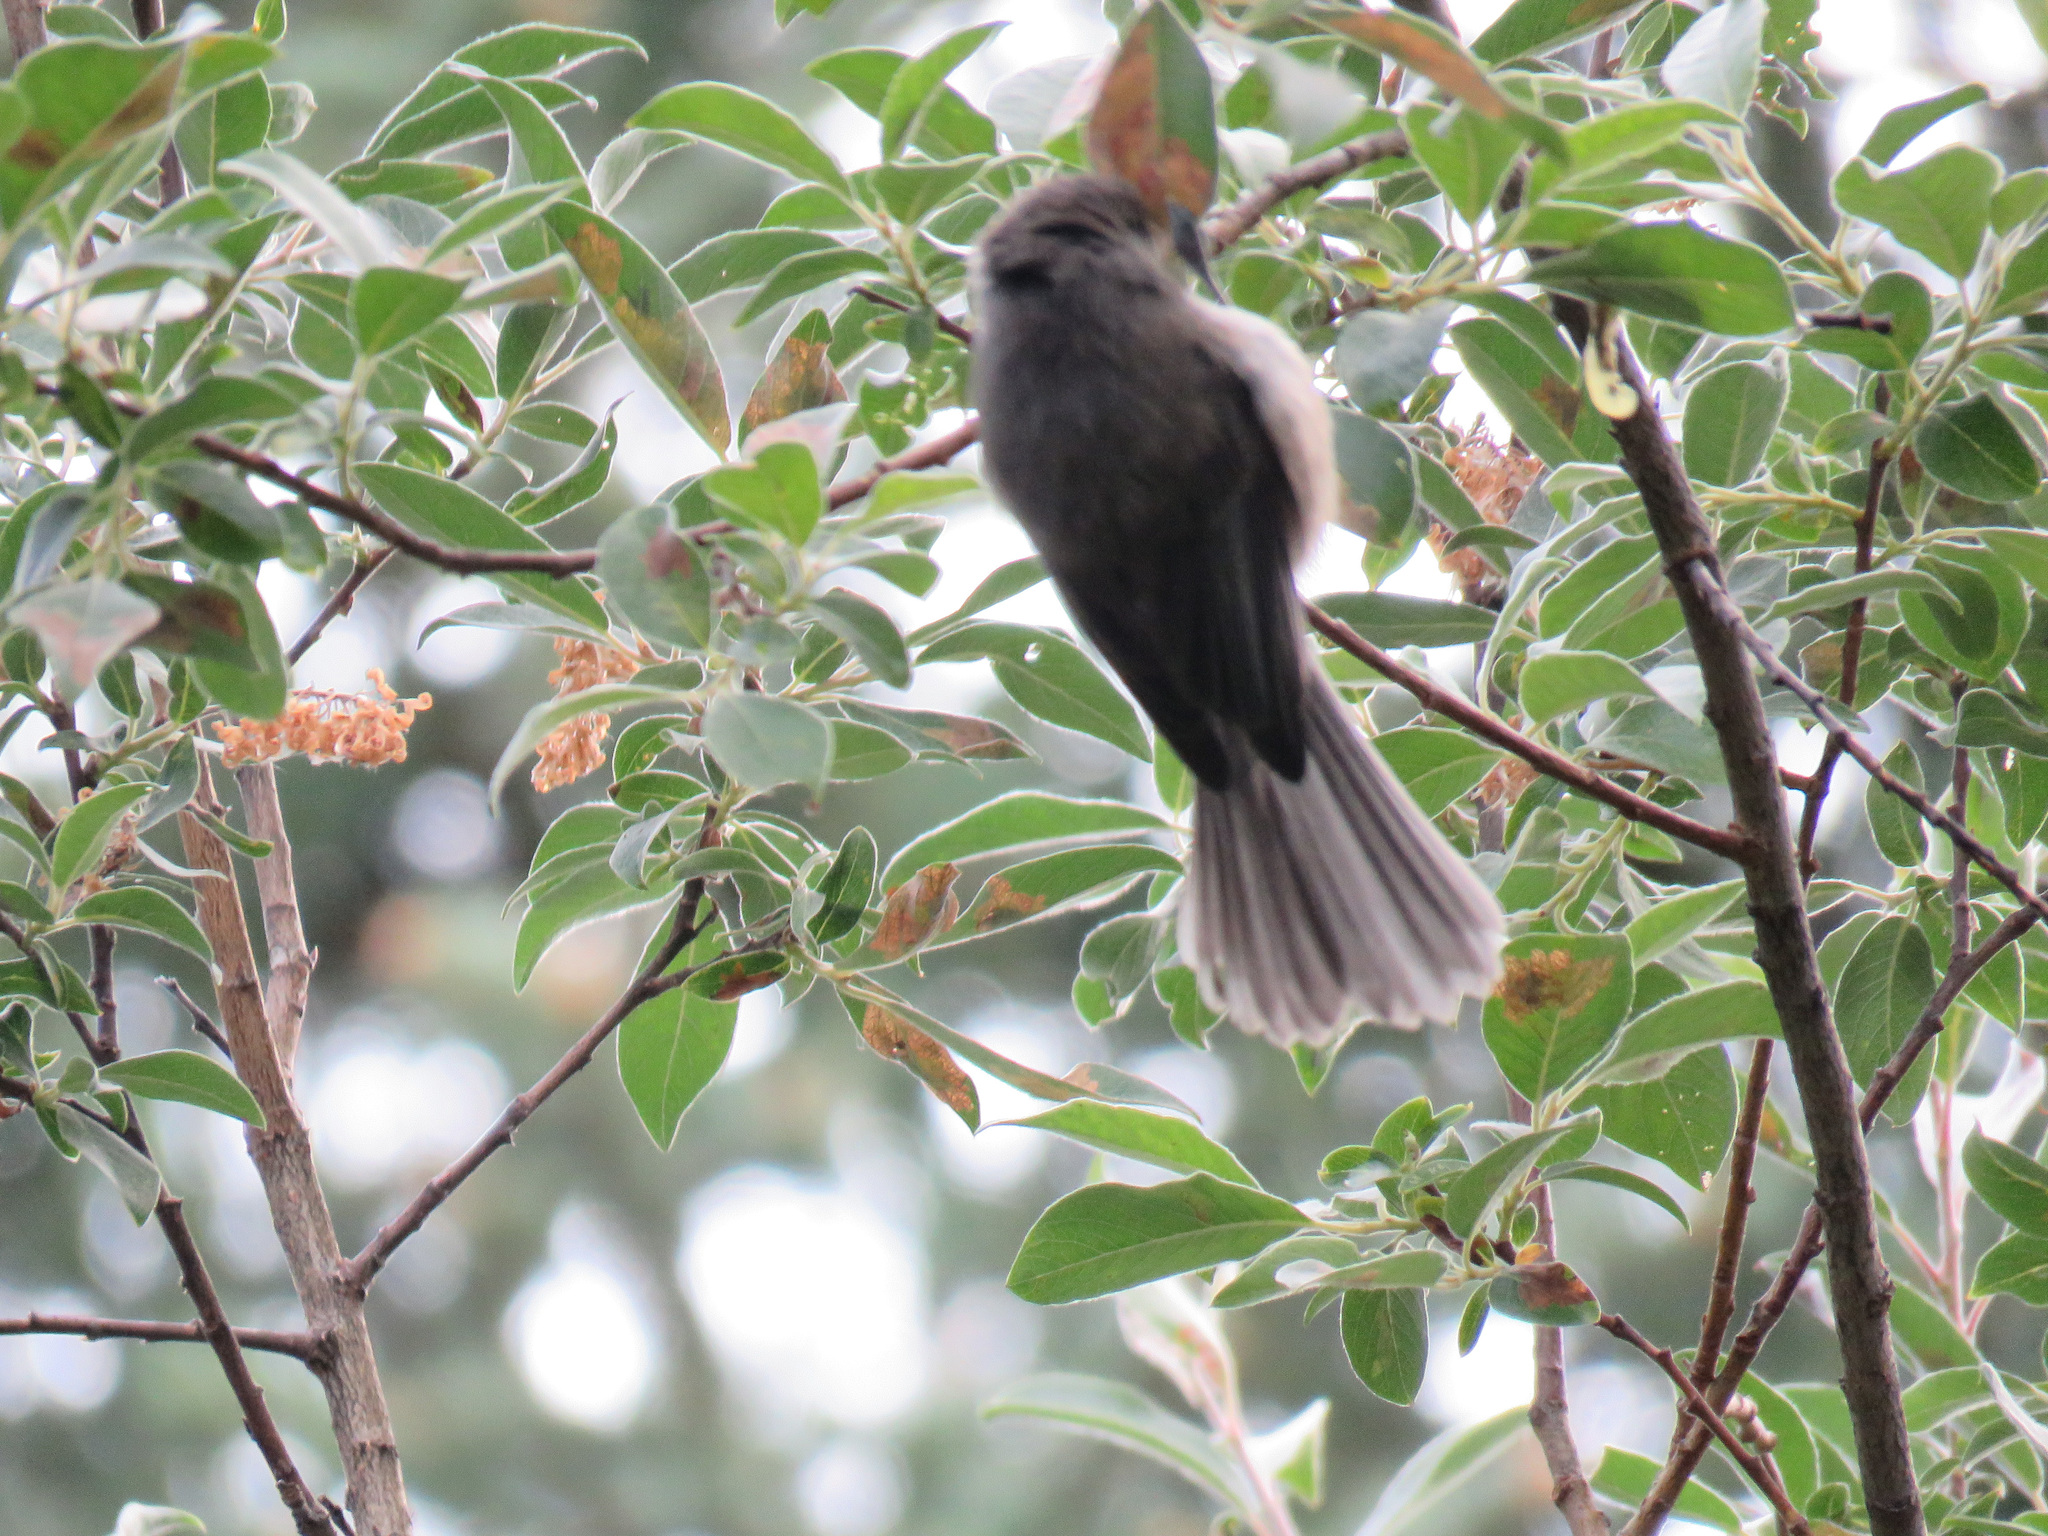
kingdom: Animalia
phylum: Chordata
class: Aves
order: Passeriformes
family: Paridae
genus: Poecile
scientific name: Poecile hudsonicus
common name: Boreal chickadee
